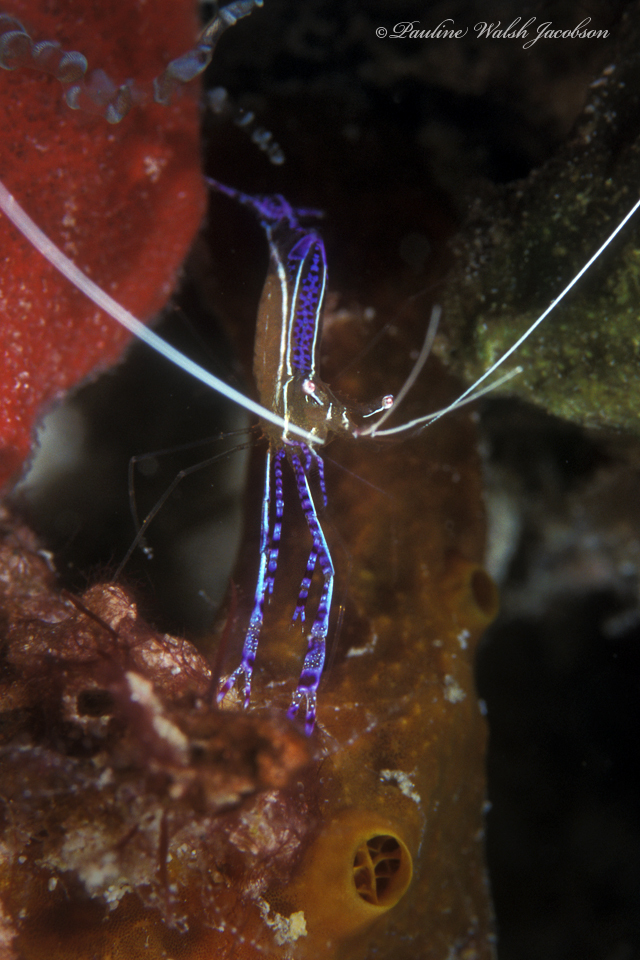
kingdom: Animalia
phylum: Arthropoda
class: Malacostraca
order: Decapoda
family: Palaemonidae
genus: Ancylomenes
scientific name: Ancylomenes pedersoni
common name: Pederson's cleaning shrimp
